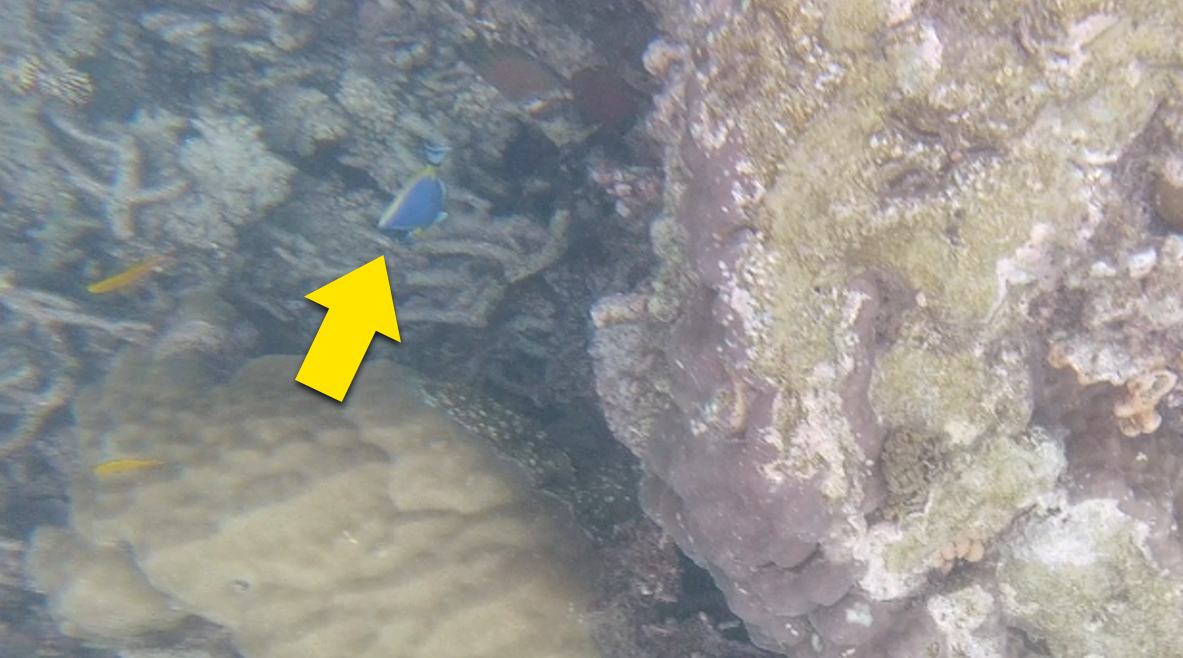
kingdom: Animalia
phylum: Chordata
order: Perciformes
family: Acanthuridae
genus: Acanthurus
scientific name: Acanthurus leucosternon
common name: Blue surgeonfish
